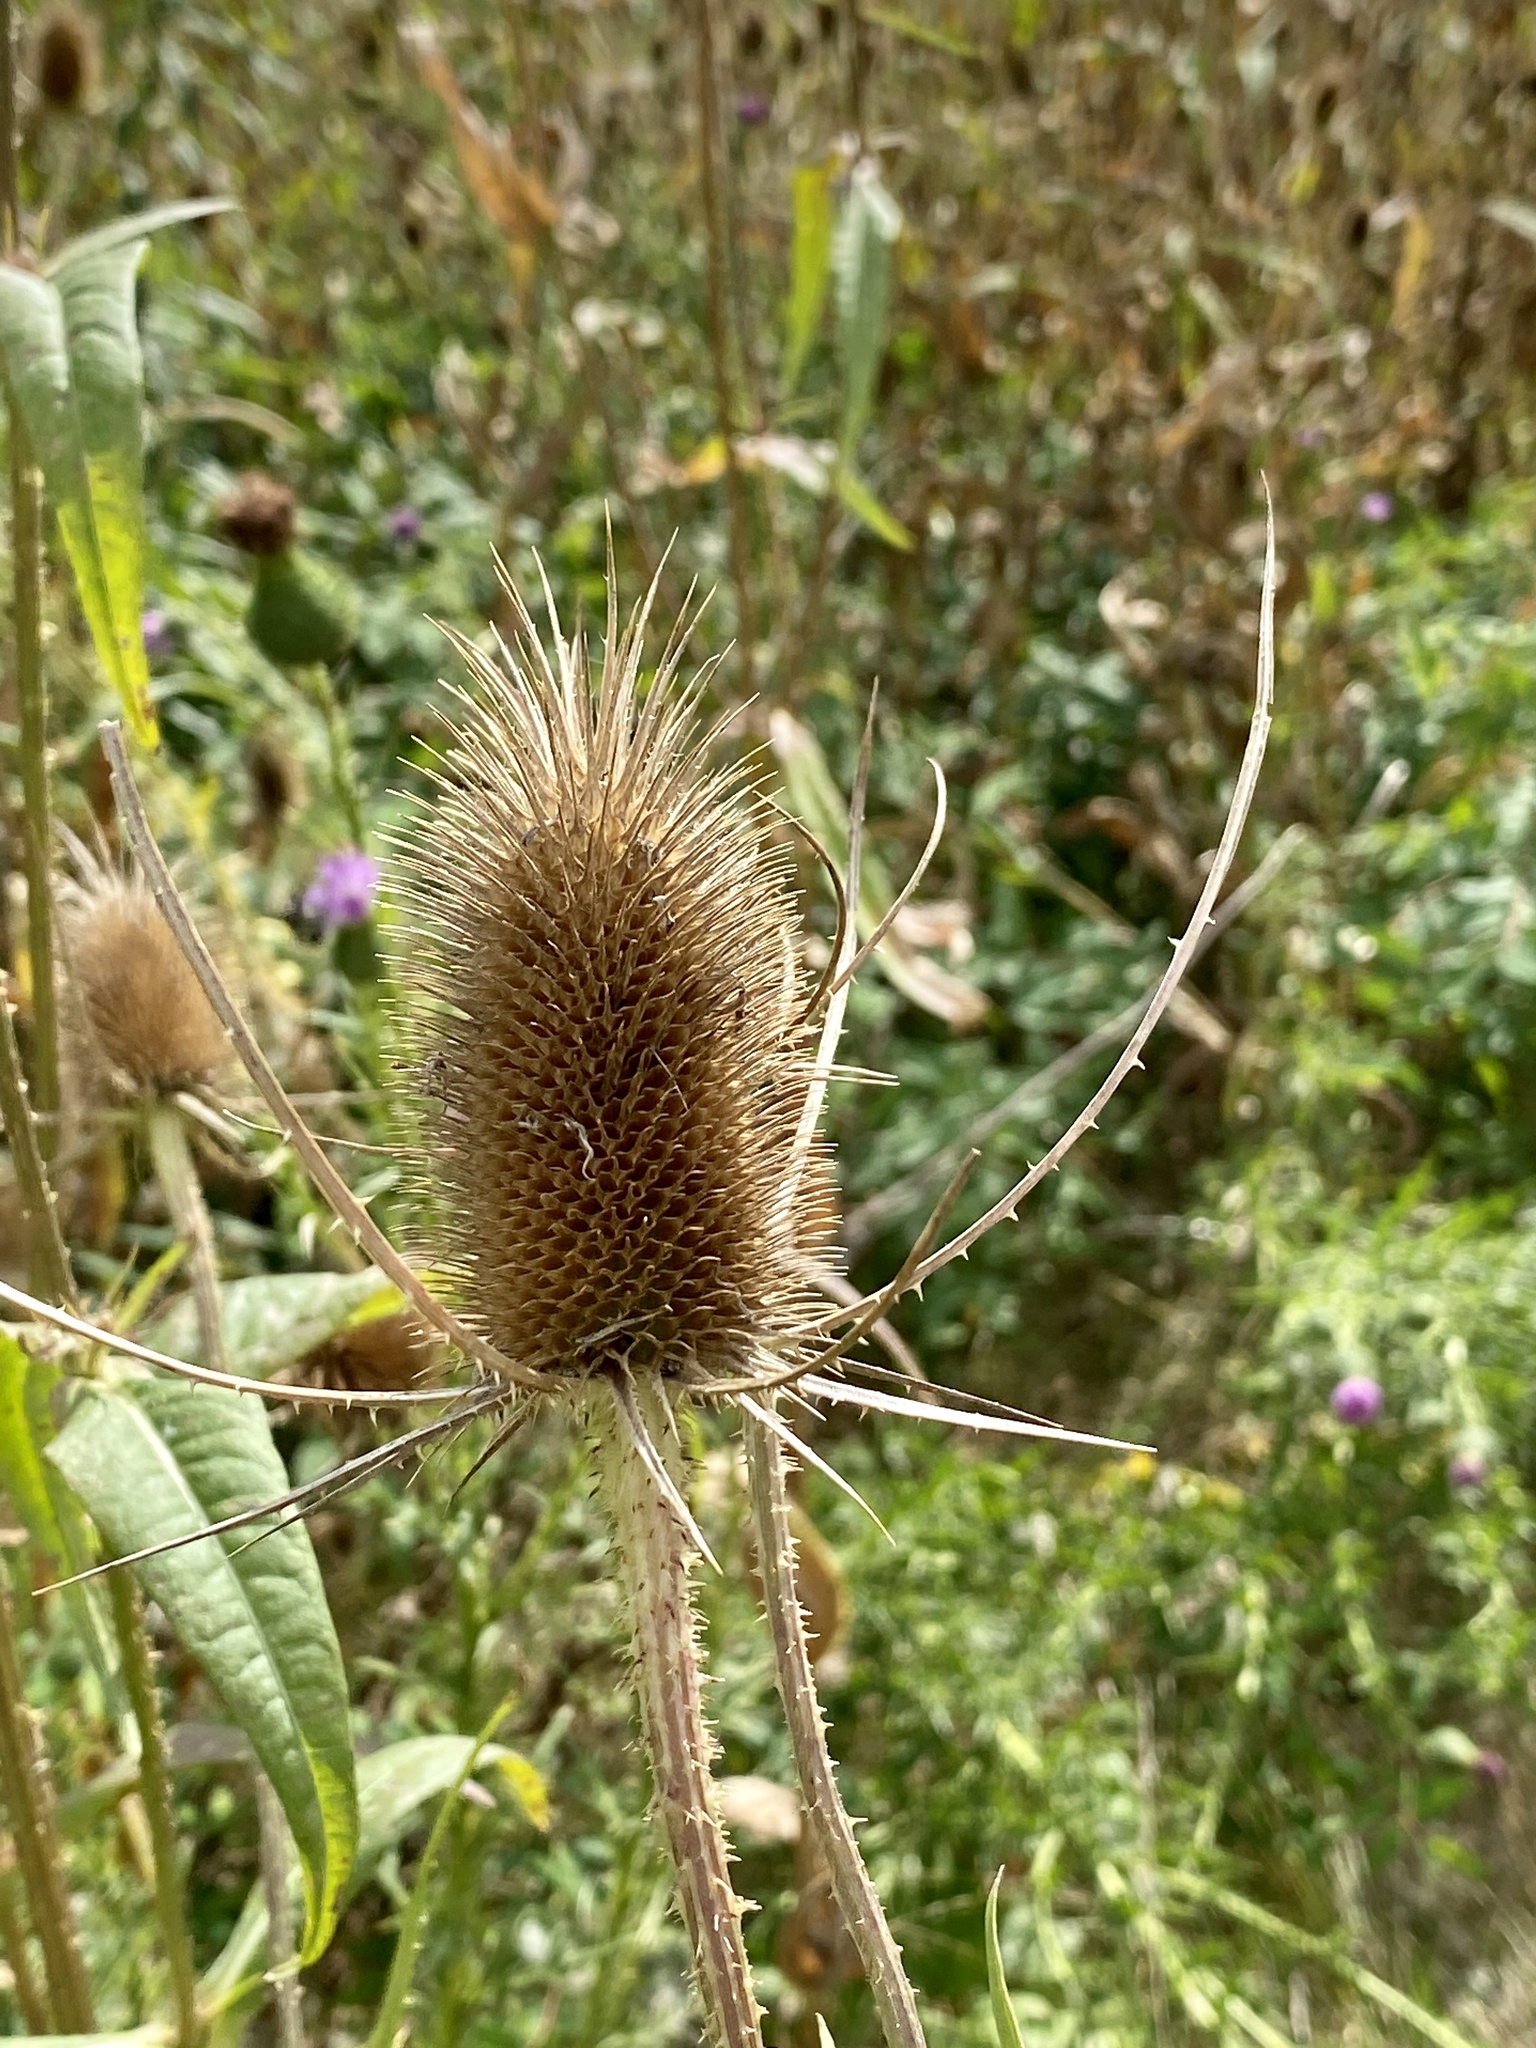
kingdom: Plantae
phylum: Tracheophyta
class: Magnoliopsida
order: Dipsacales
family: Caprifoliaceae
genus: Dipsacus
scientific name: Dipsacus fullonum
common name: Teasel
